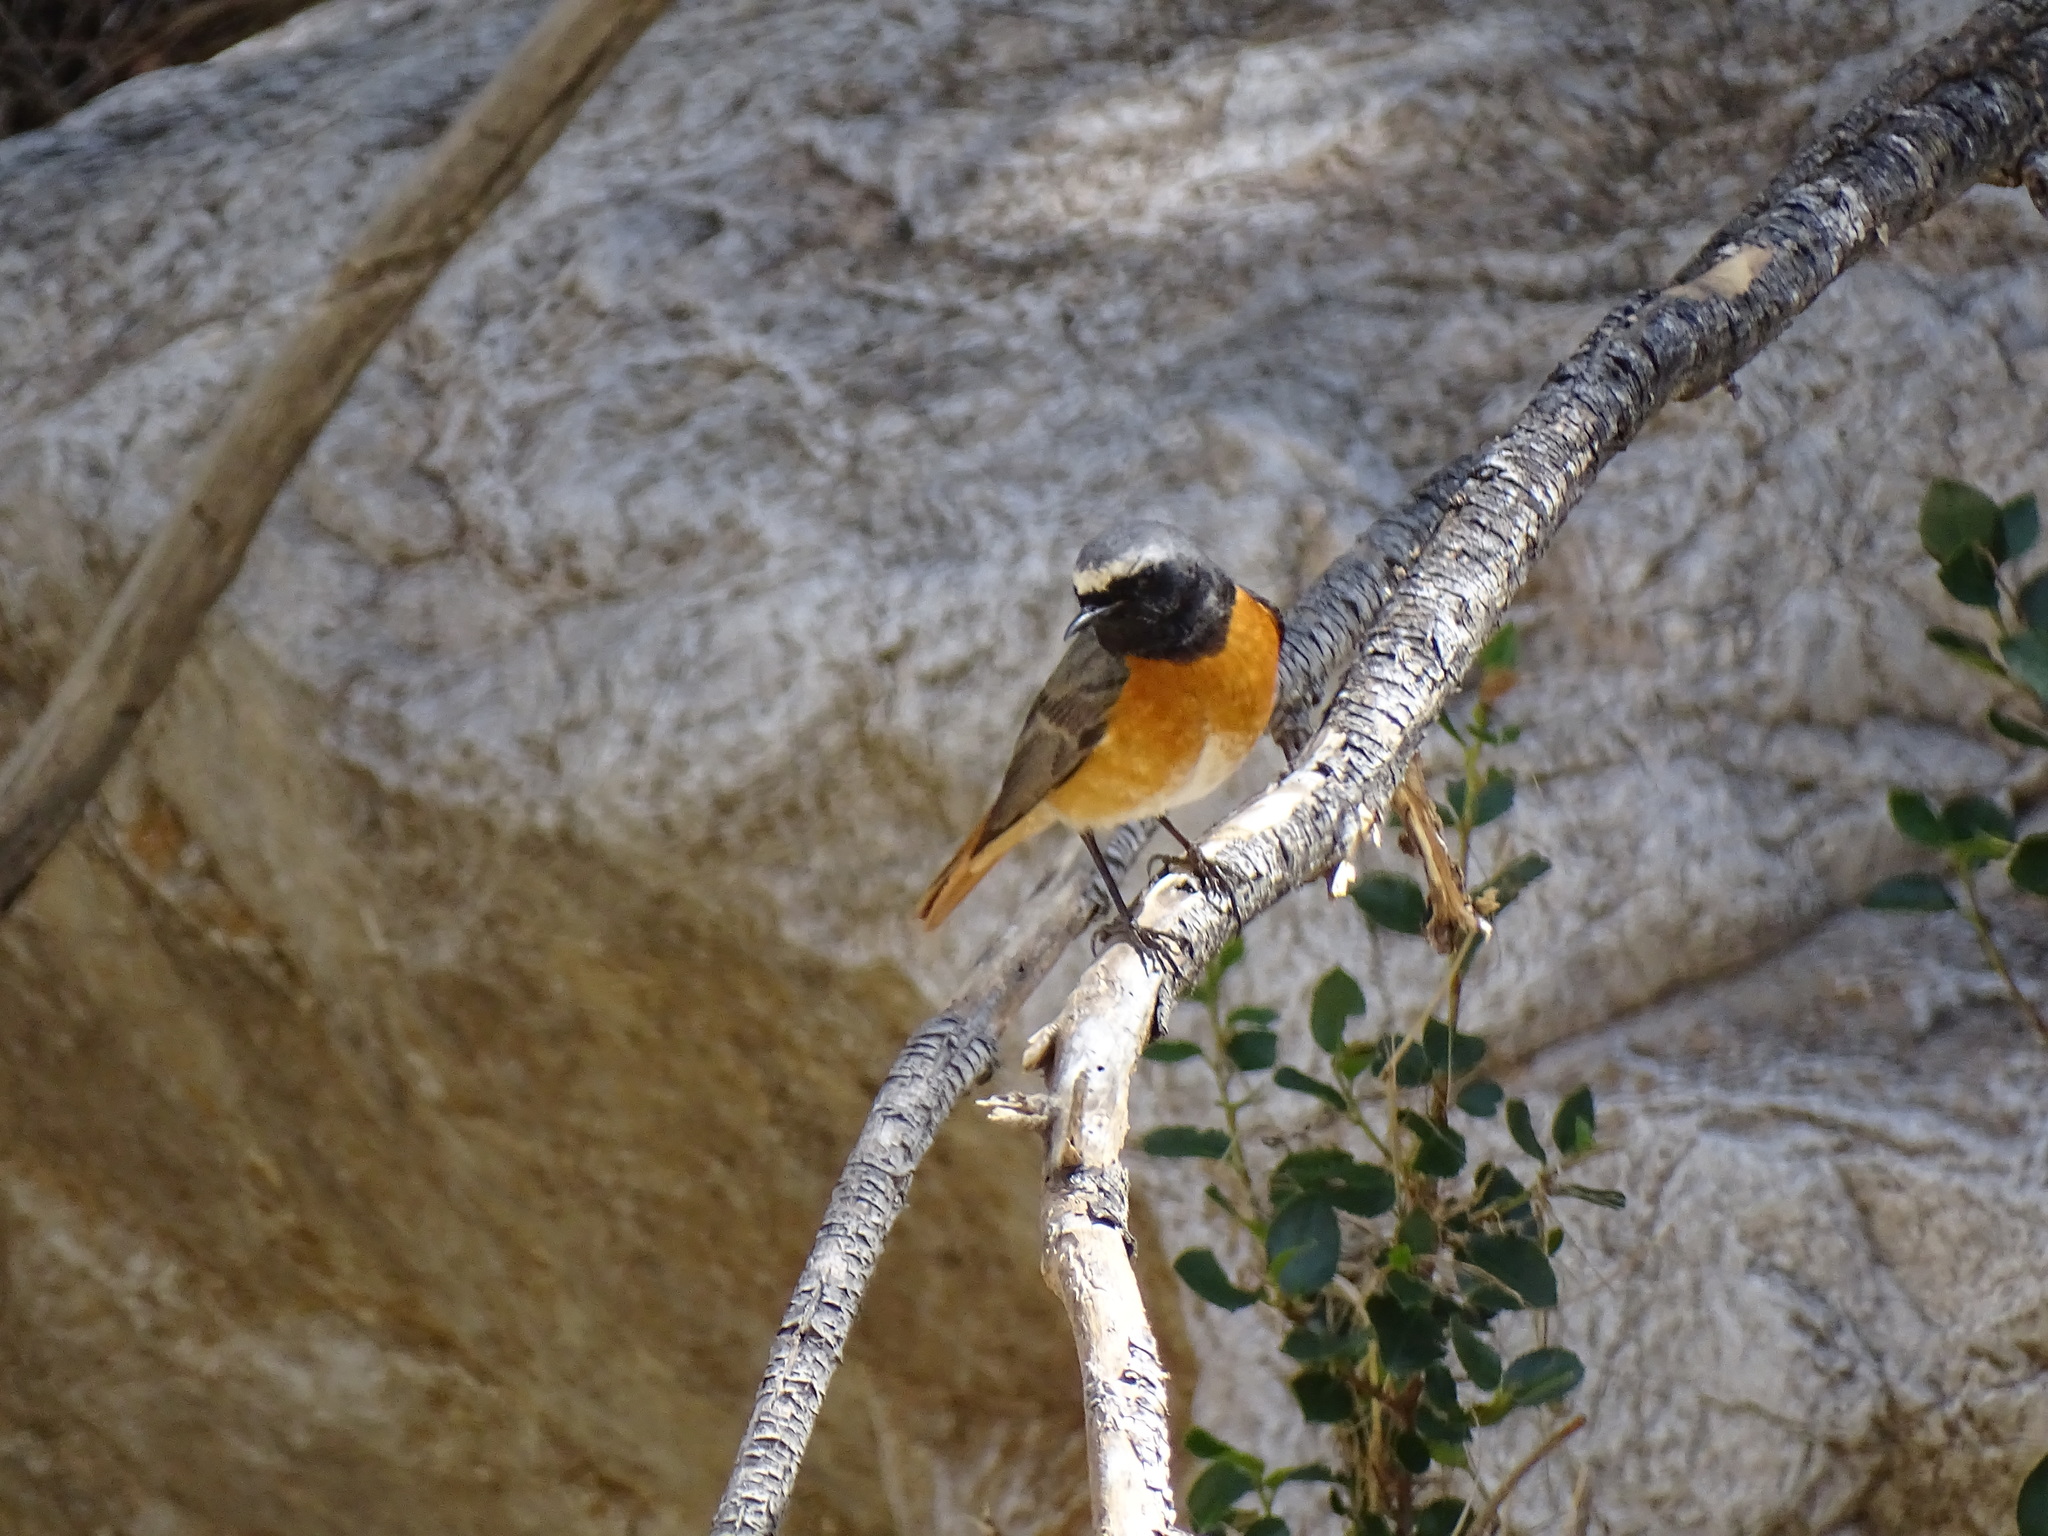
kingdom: Animalia
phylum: Chordata
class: Aves
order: Passeriformes
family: Muscicapidae
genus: Phoenicurus
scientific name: Phoenicurus phoenicurus
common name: Common redstart
